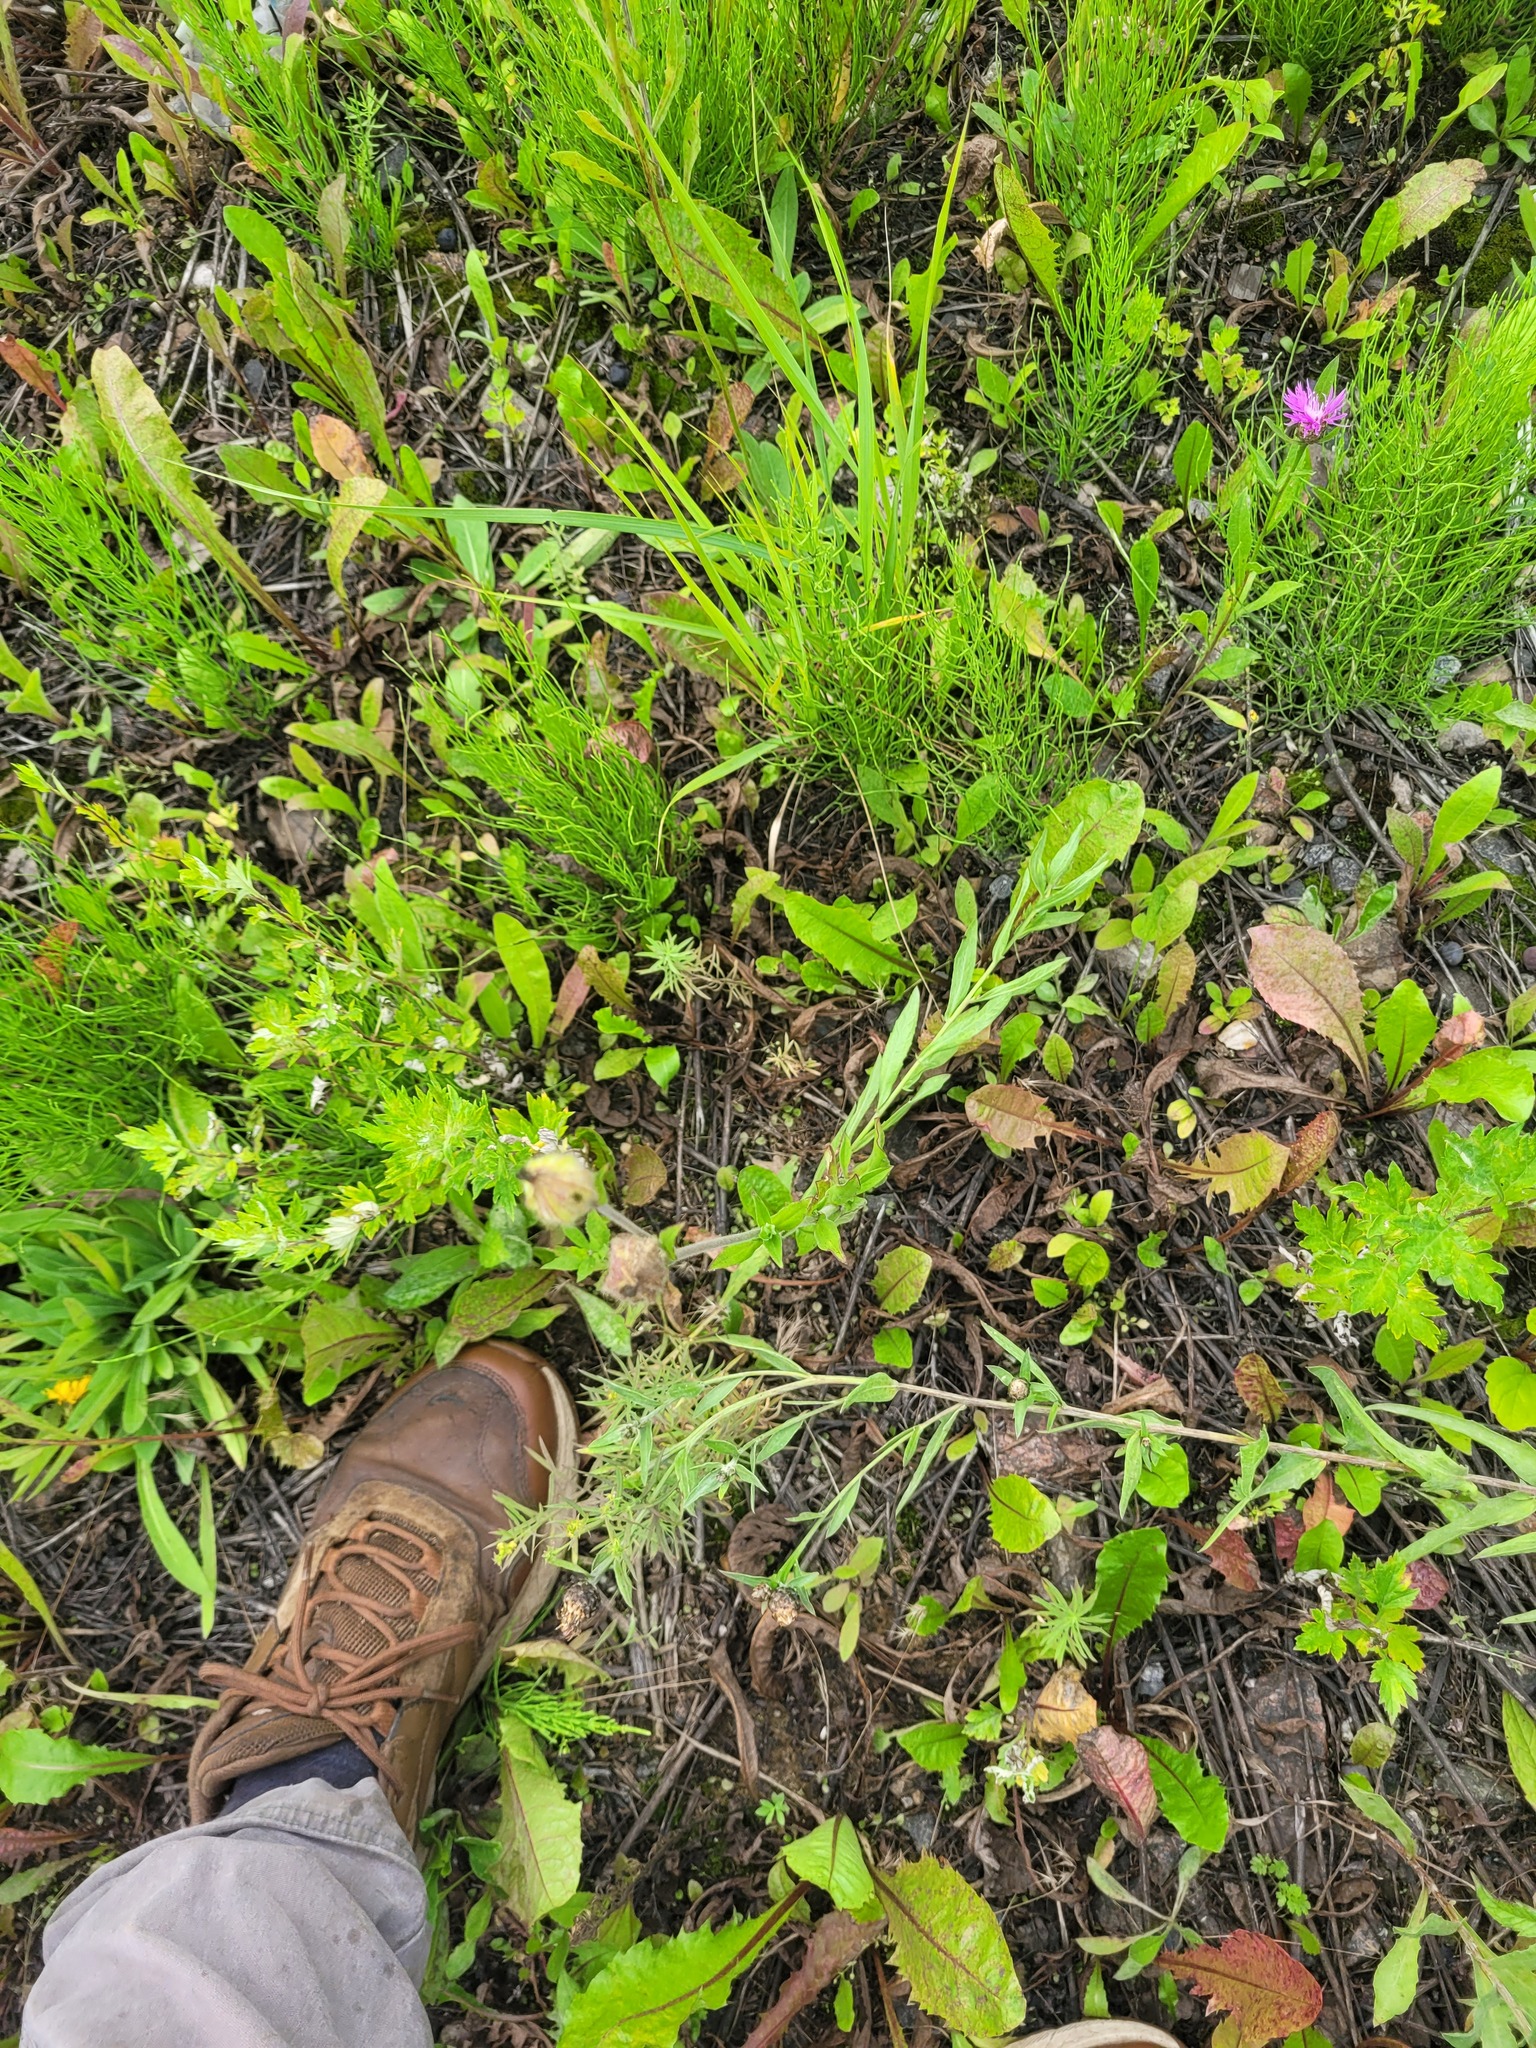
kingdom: Plantae
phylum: Tracheophyta
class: Magnoliopsida
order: Caryophyllales
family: Caryophyllaceae
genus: Silene
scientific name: Silene latifolia
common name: White campion
